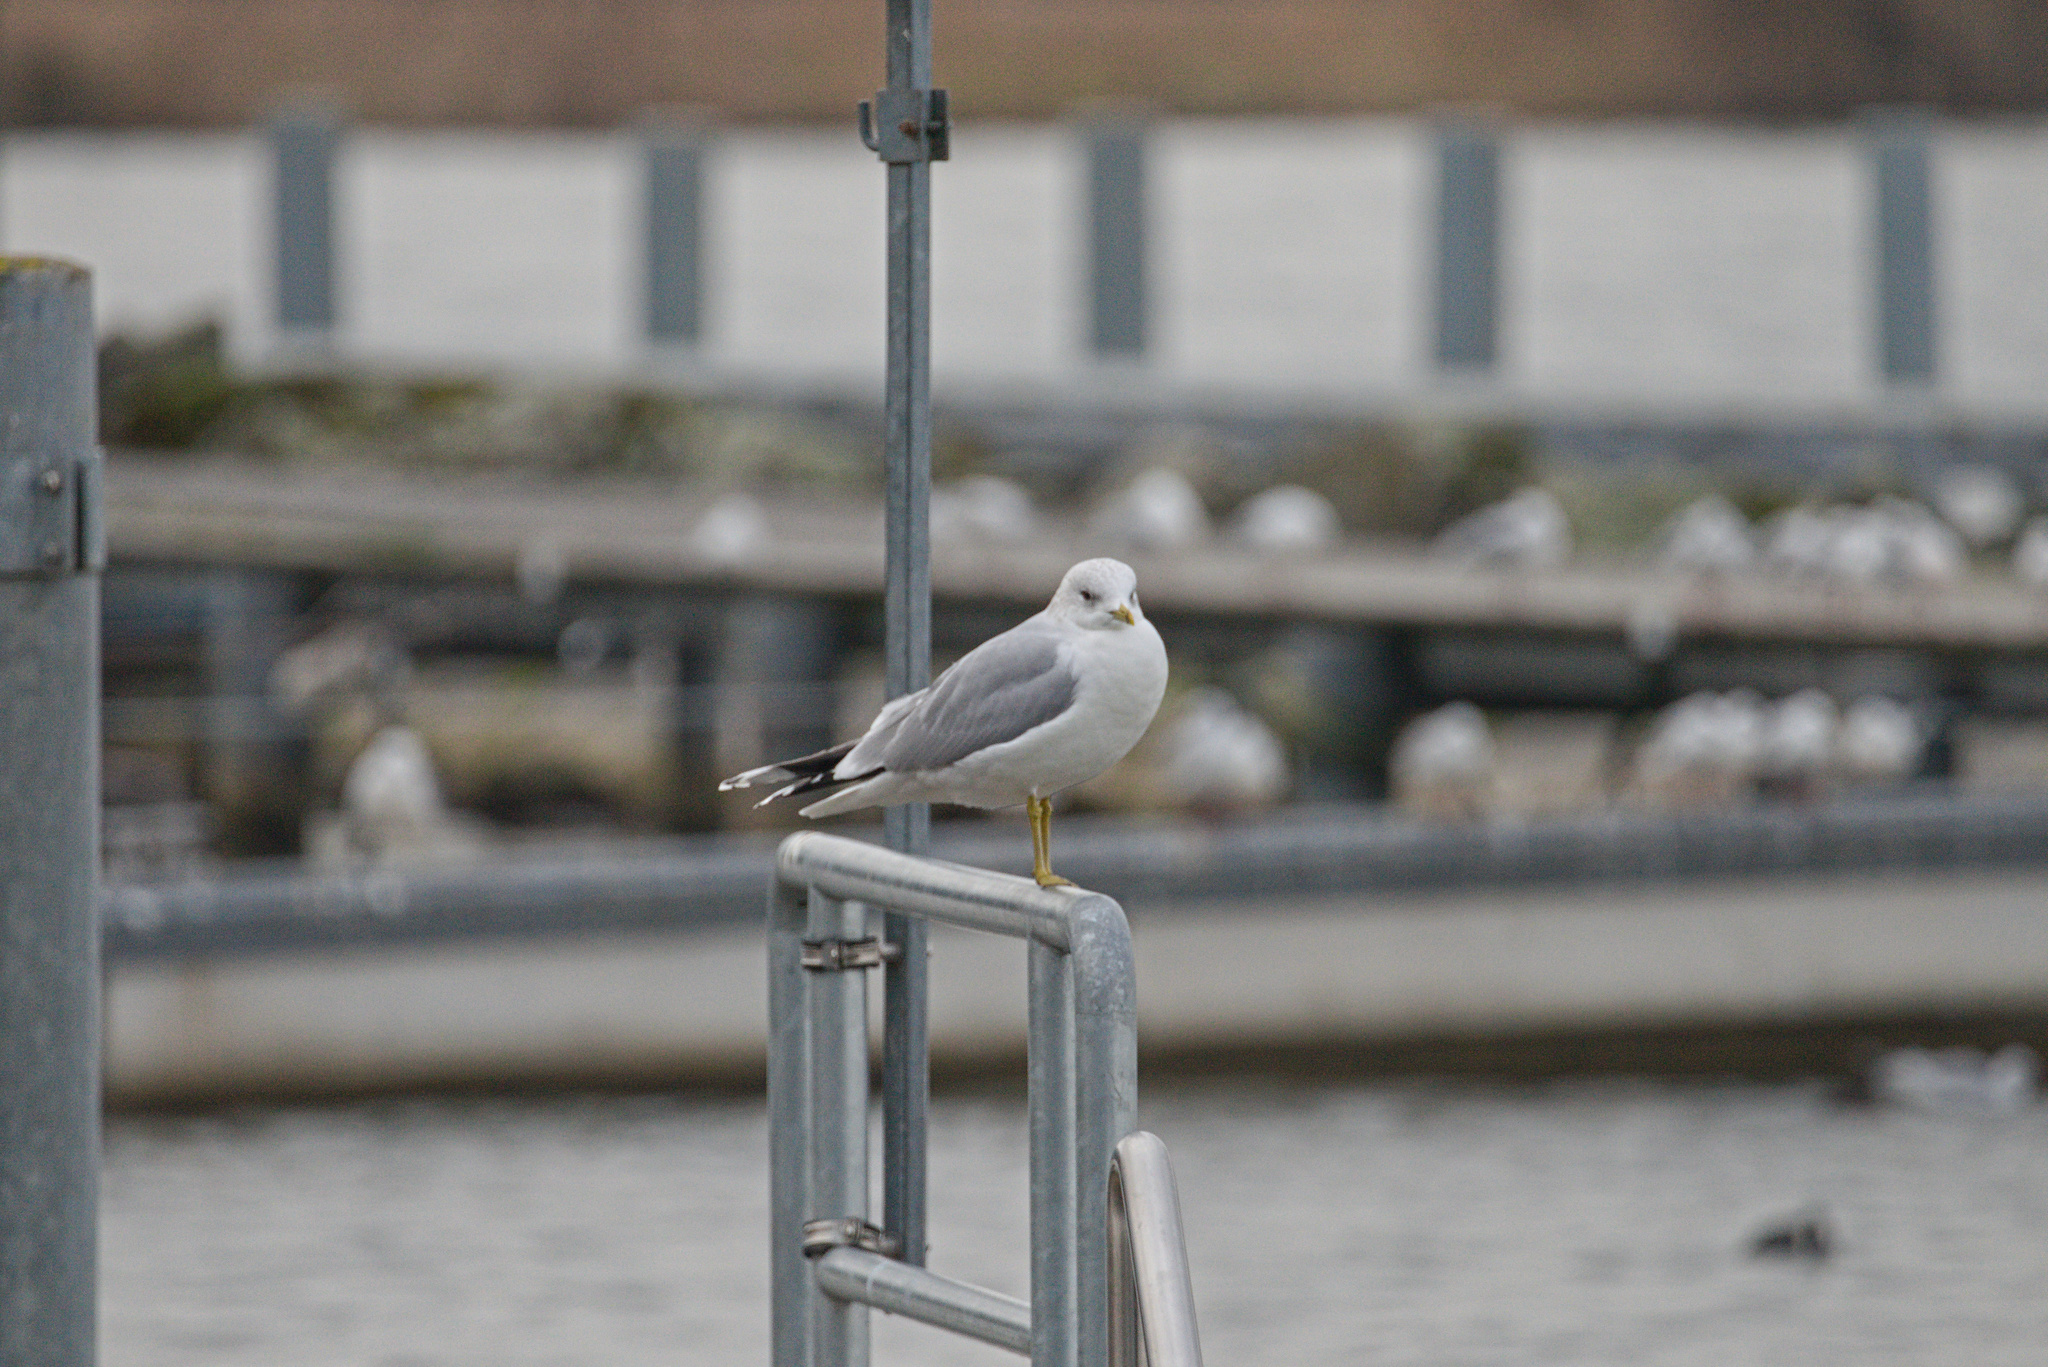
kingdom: Animalia
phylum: Chordata
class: Aves
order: Charadriiformes
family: Laridae
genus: Larus
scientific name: Larus canus
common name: Mew gull
